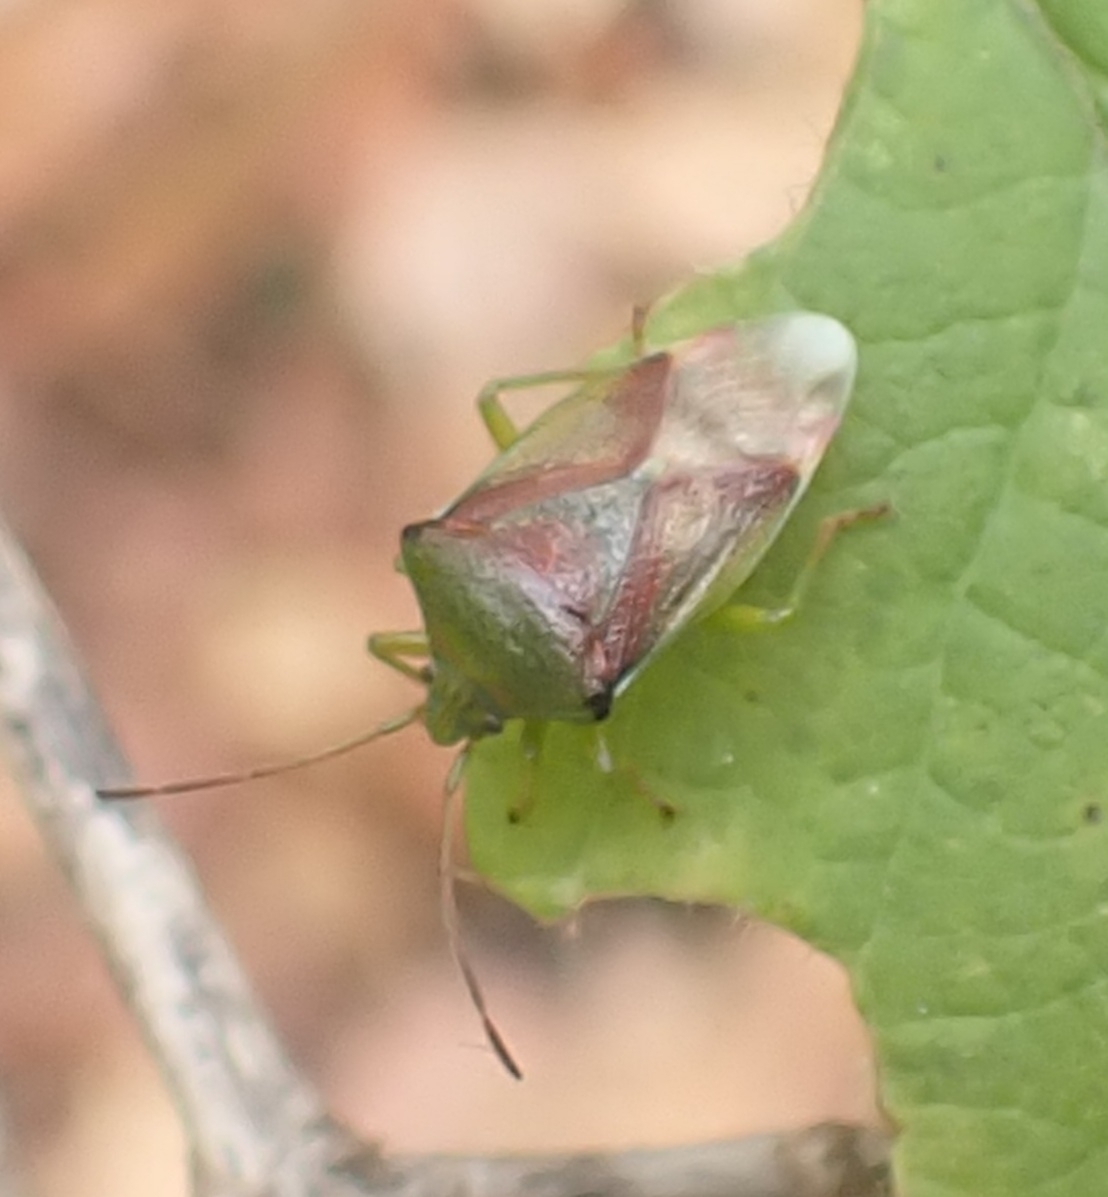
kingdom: Animalia
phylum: Arthropoda
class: Insecta
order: Hemiptera
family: Acanthosomatidae
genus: Elasmostethus
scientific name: Elasmostethus
